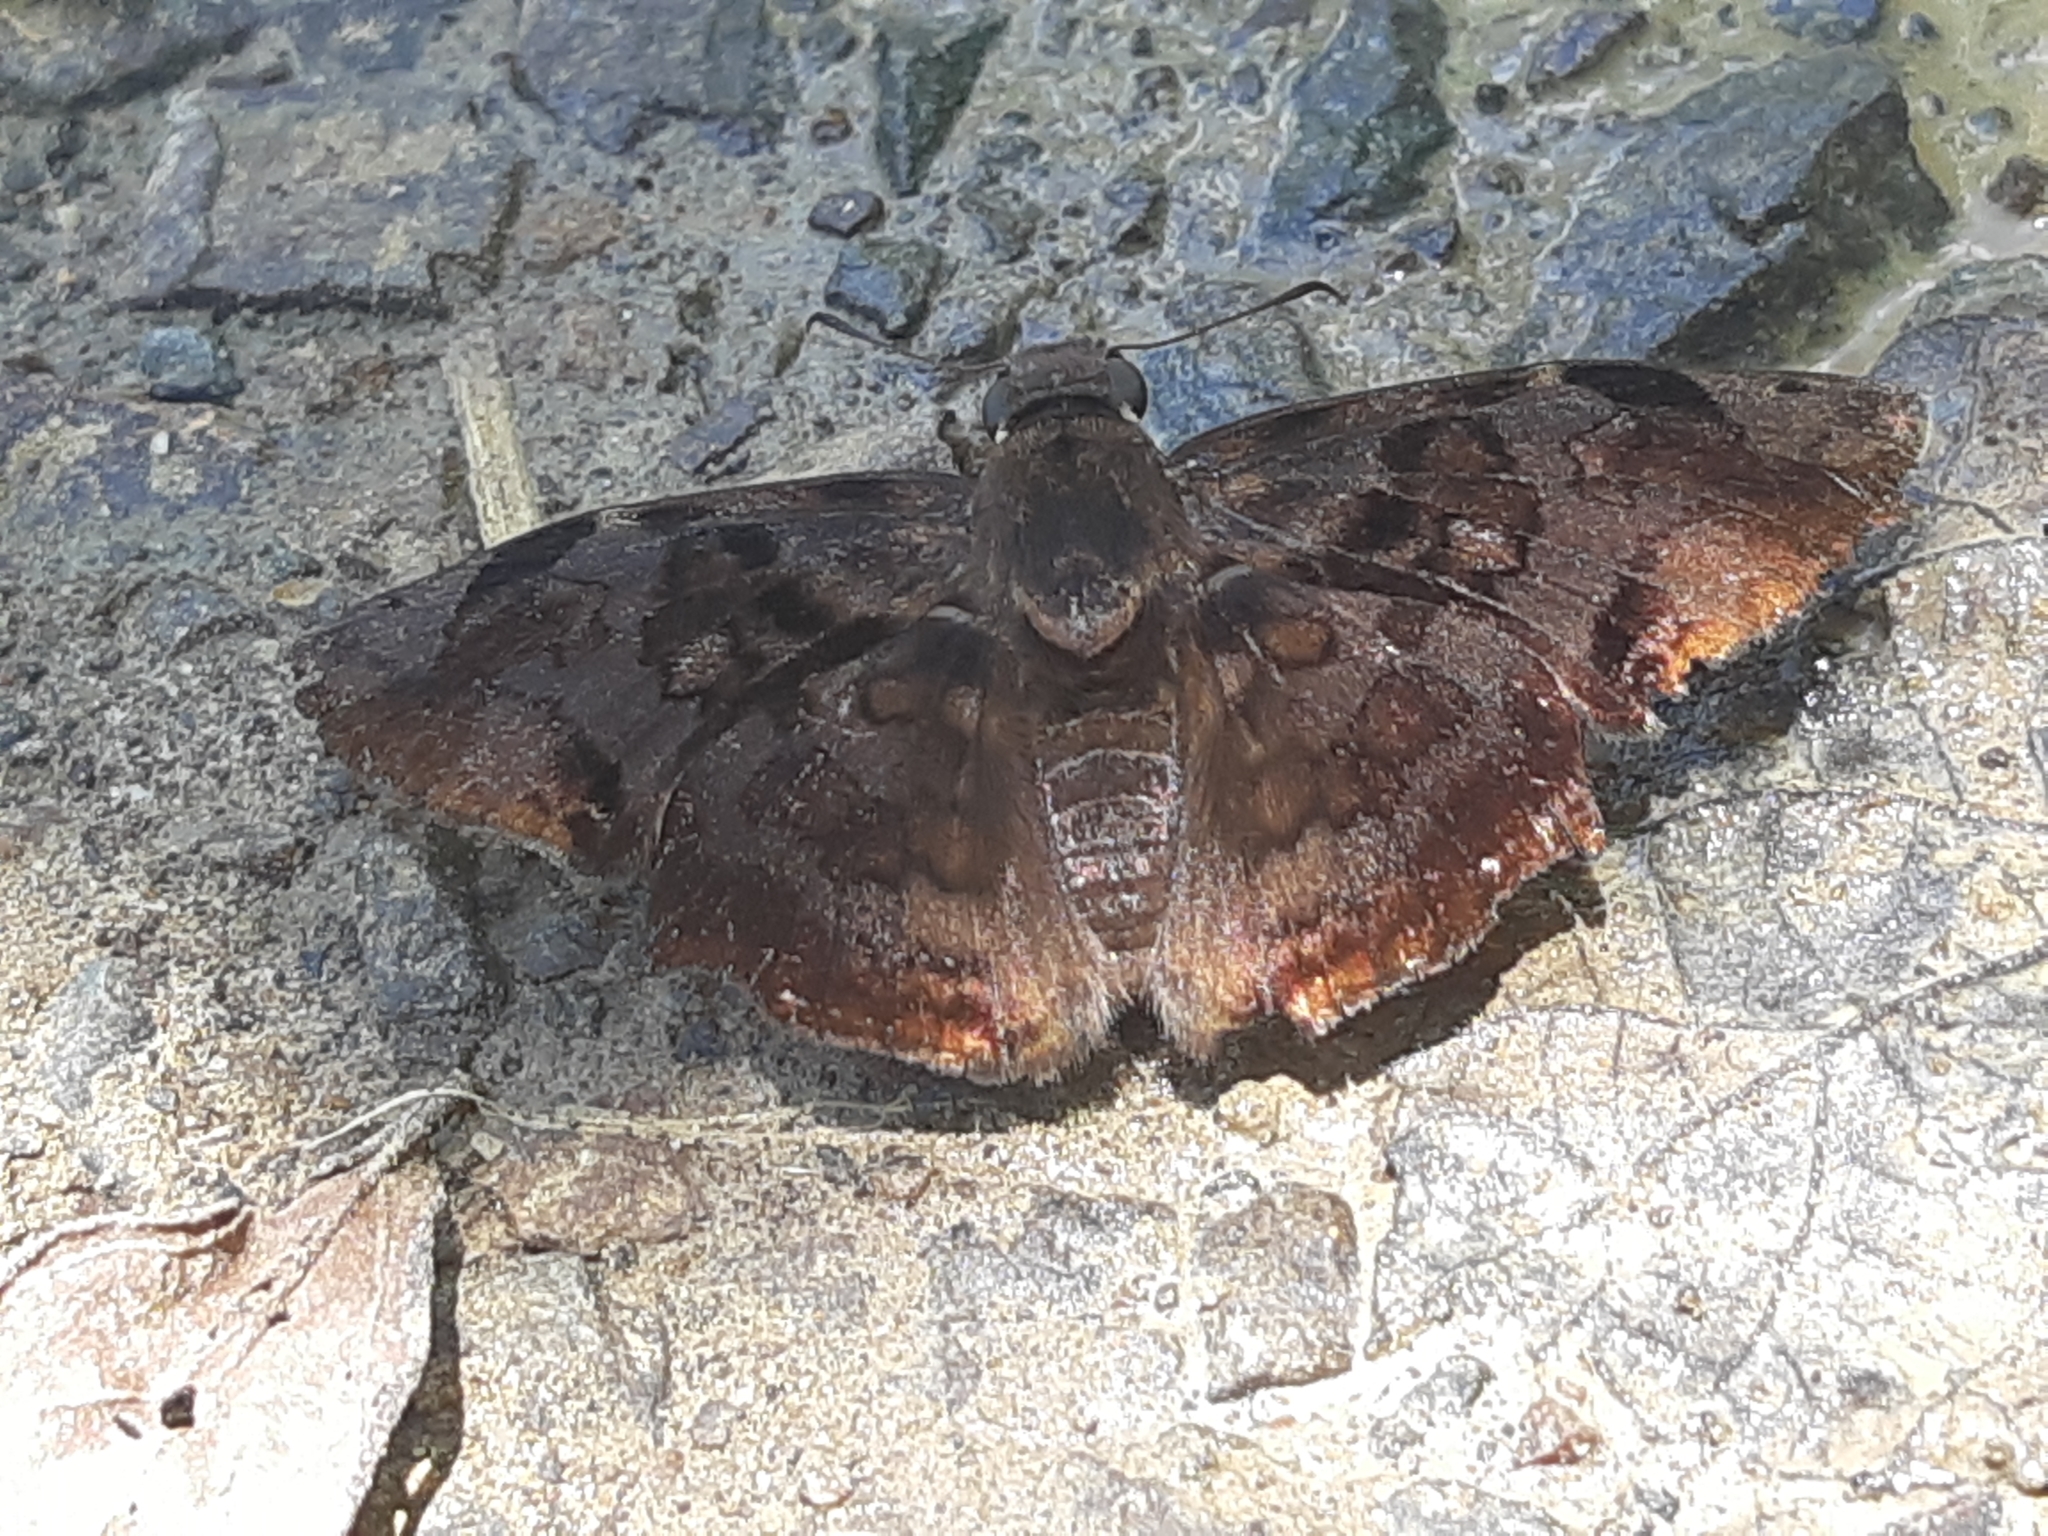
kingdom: Animalia
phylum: Arthropoda
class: Insecta
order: Lepidoptera
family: Hesperiidae
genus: Antigonus
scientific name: Antigonus nearchus
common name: Death-mask spurwing
